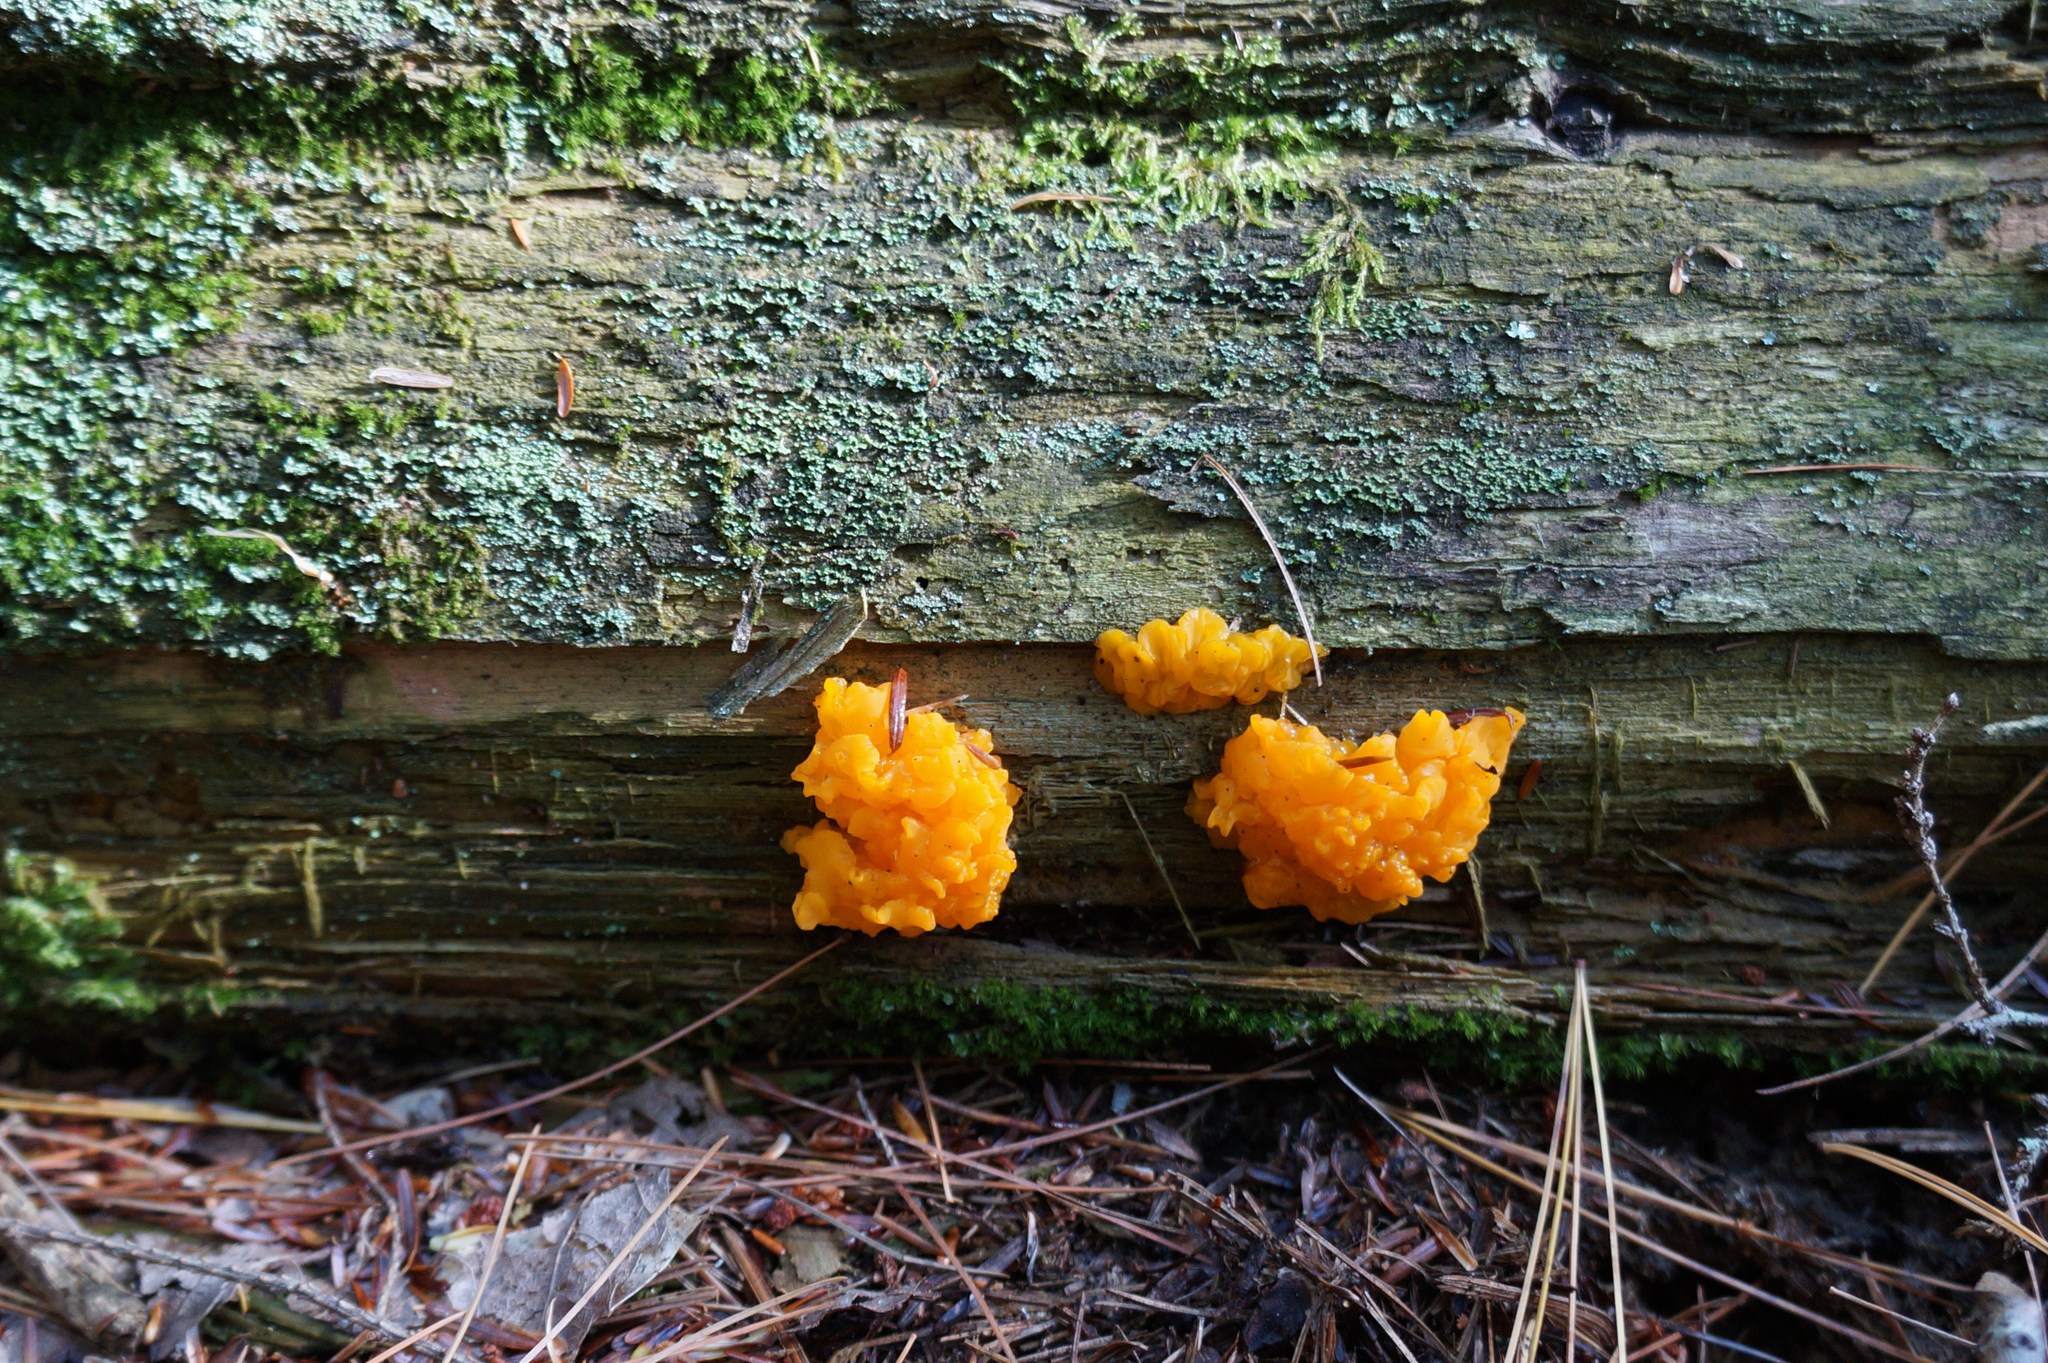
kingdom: Fungi
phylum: Basidiomycota
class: Dacrymycetes
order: Dacrymycetales
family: Dacrymycetaceae
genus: Dacrymyces
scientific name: Dacrymyces chrysospermus
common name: Orange jelly spot
